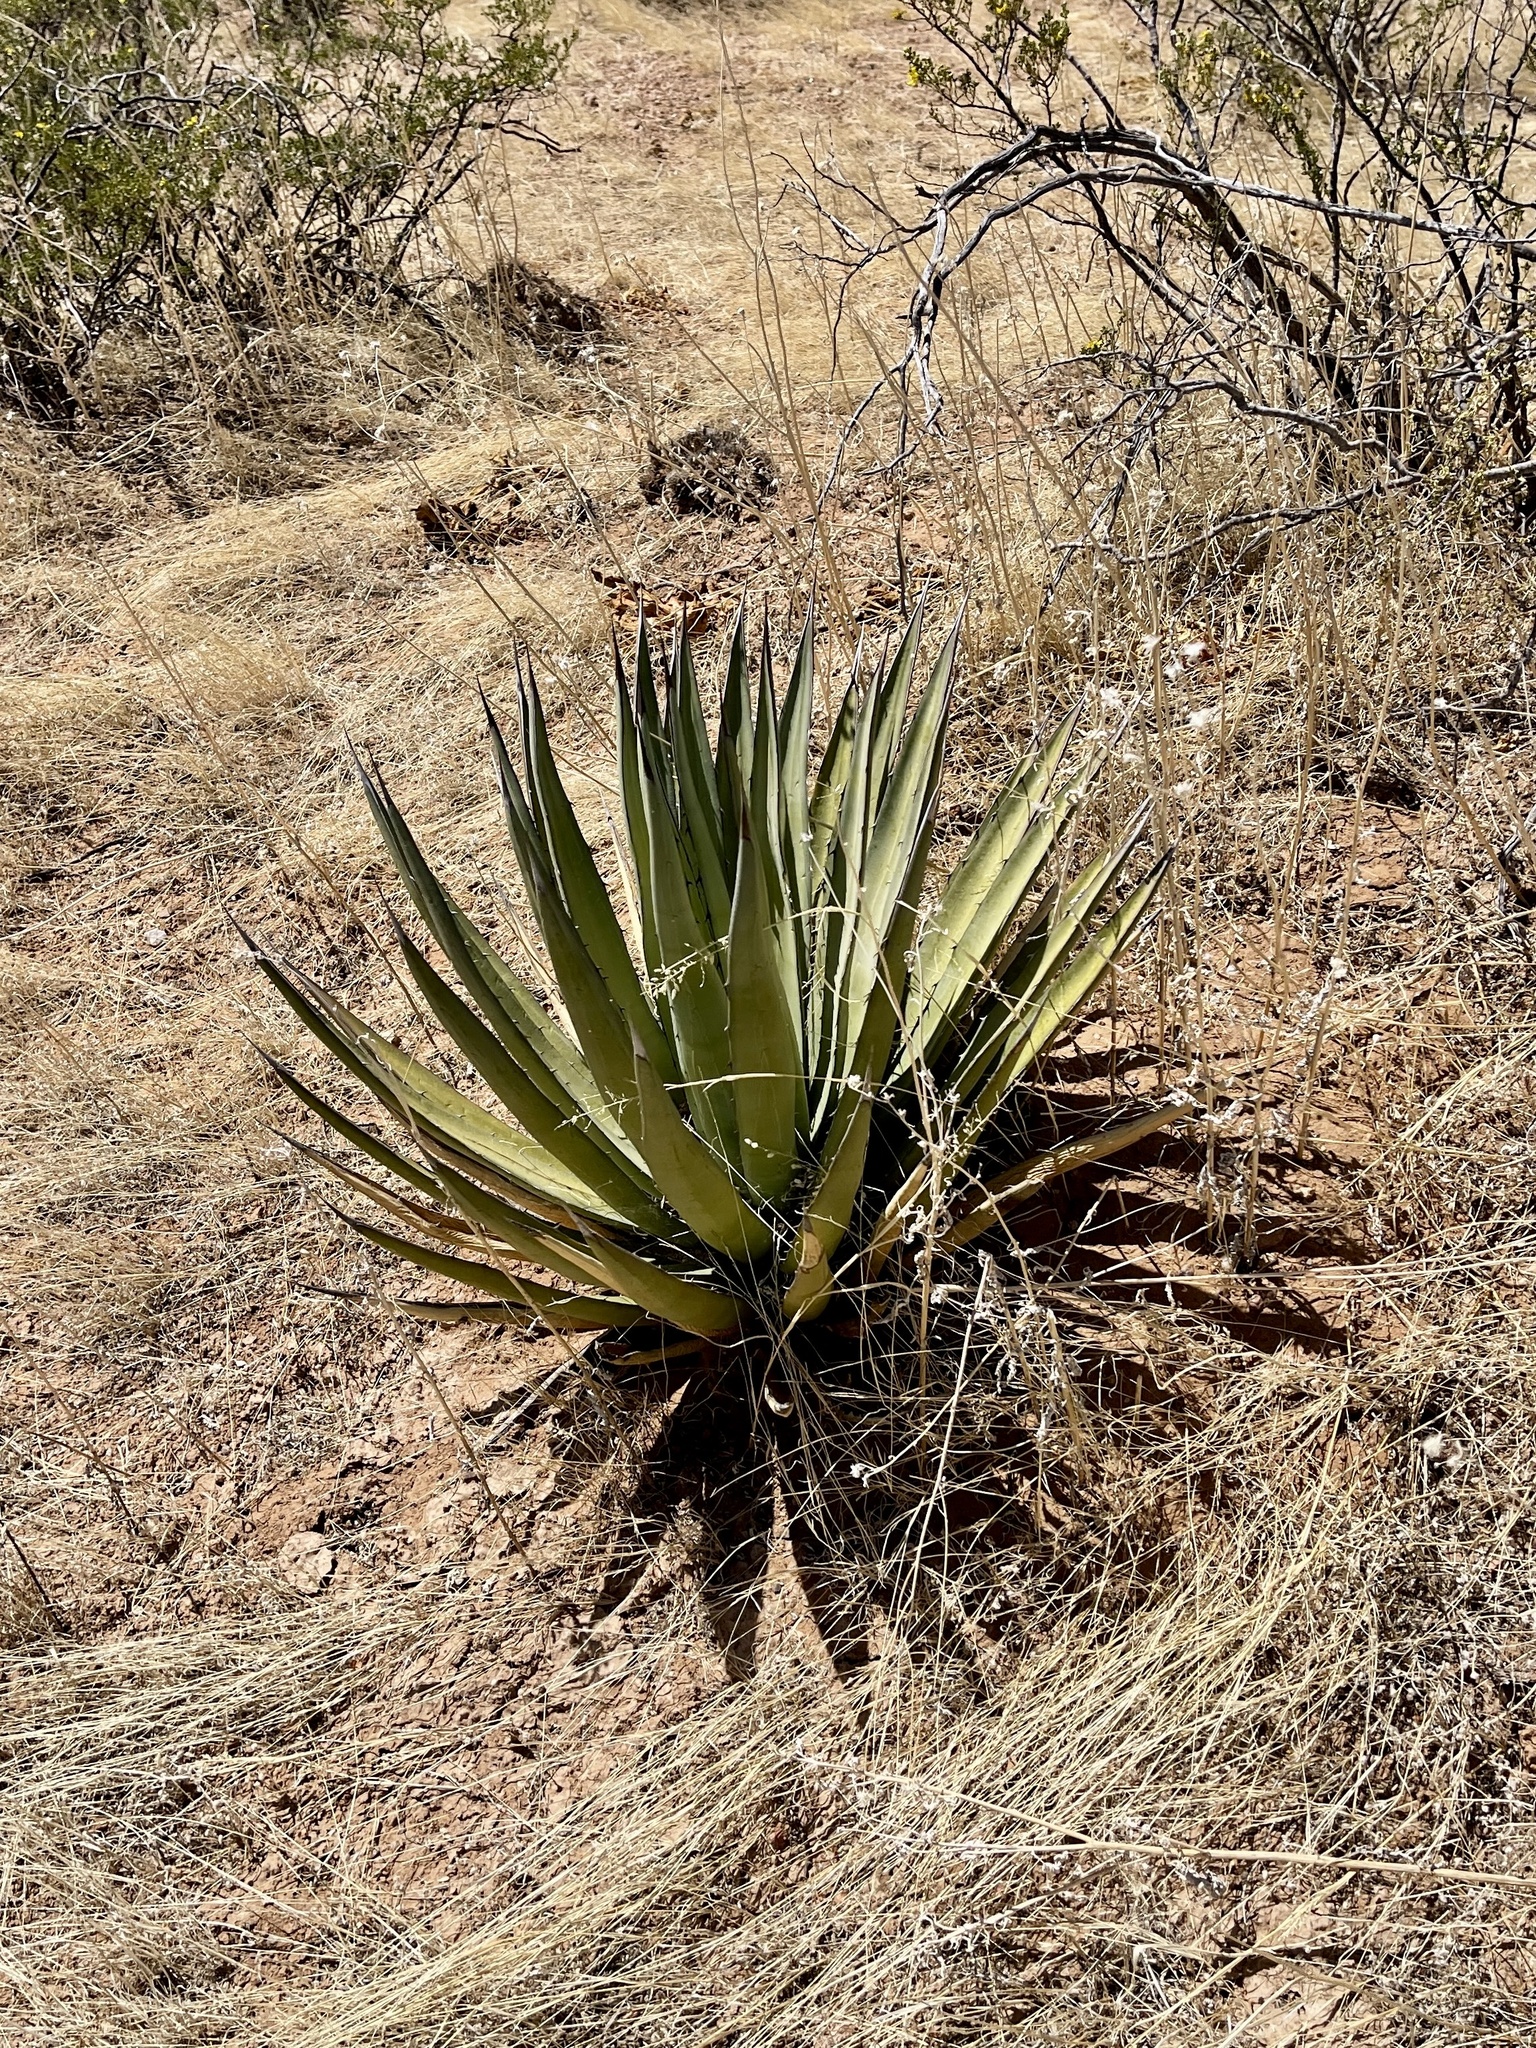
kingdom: Plantae
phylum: Tracheophyta
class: Liliopsida
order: Asparagales
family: Asparagaceae
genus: Agave
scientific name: Agave lechuguilla
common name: Lecheguilla agave
